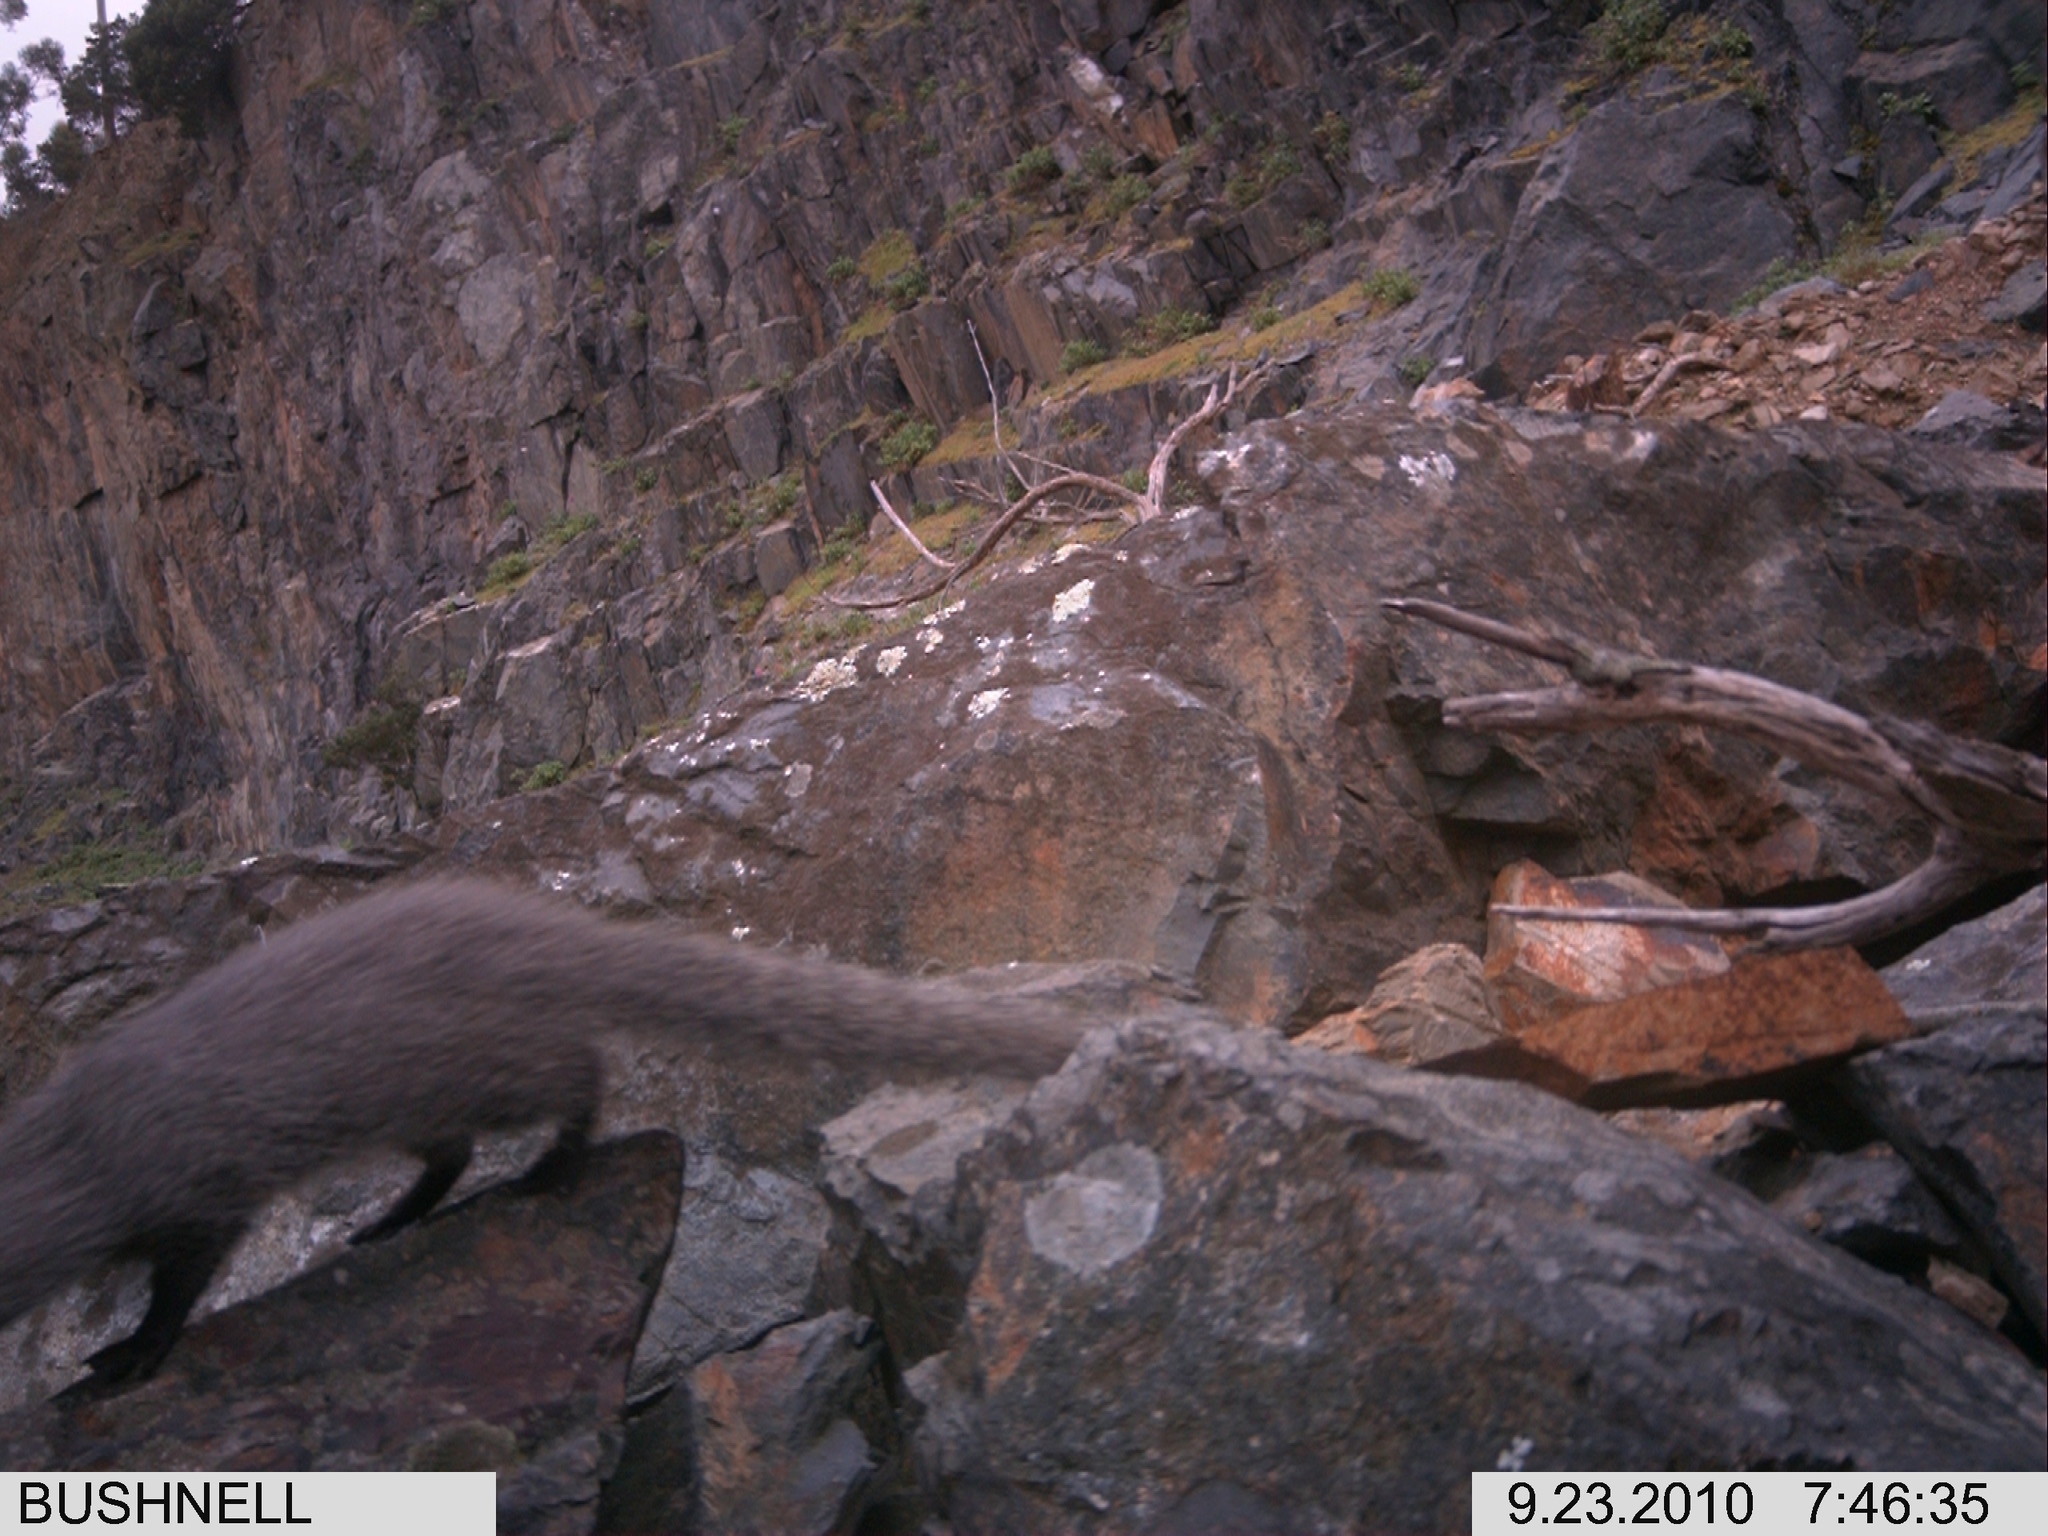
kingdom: Animalia
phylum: Chordata
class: Mammalia
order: Carnivora
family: Herpestidae
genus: Galerella
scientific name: Galerella pulverulenta
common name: Cape gray mongoose
